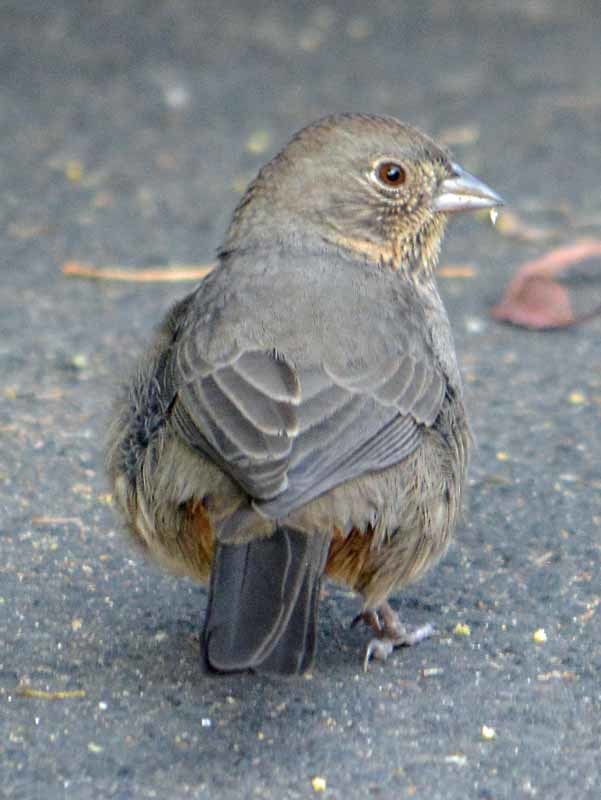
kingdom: Animalia
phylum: Chordata
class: Aves
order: Passeriformes
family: Passerellidae
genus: Melozone
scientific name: Melozone fusca
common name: Canyon towhee
